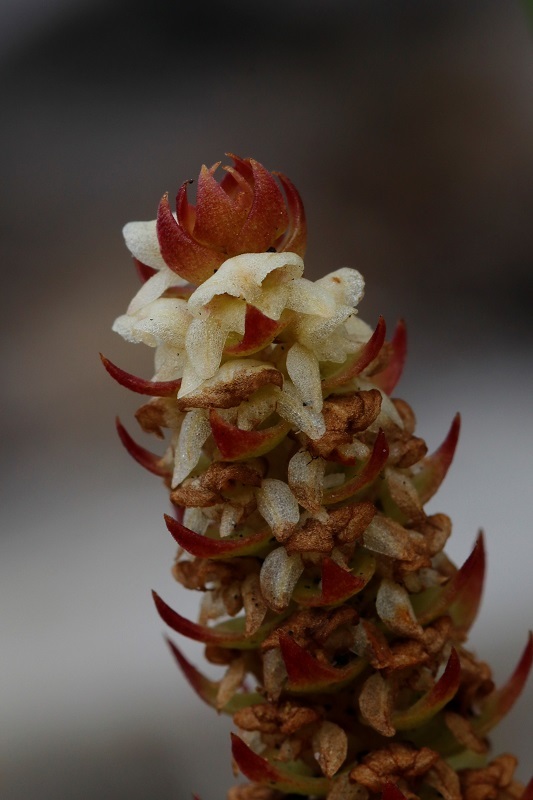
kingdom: Plantae
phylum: Tracheophyta
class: Liliopsida
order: Asparagales
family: Orchidaceae
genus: Satyrium
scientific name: Satyrium bicallosum
